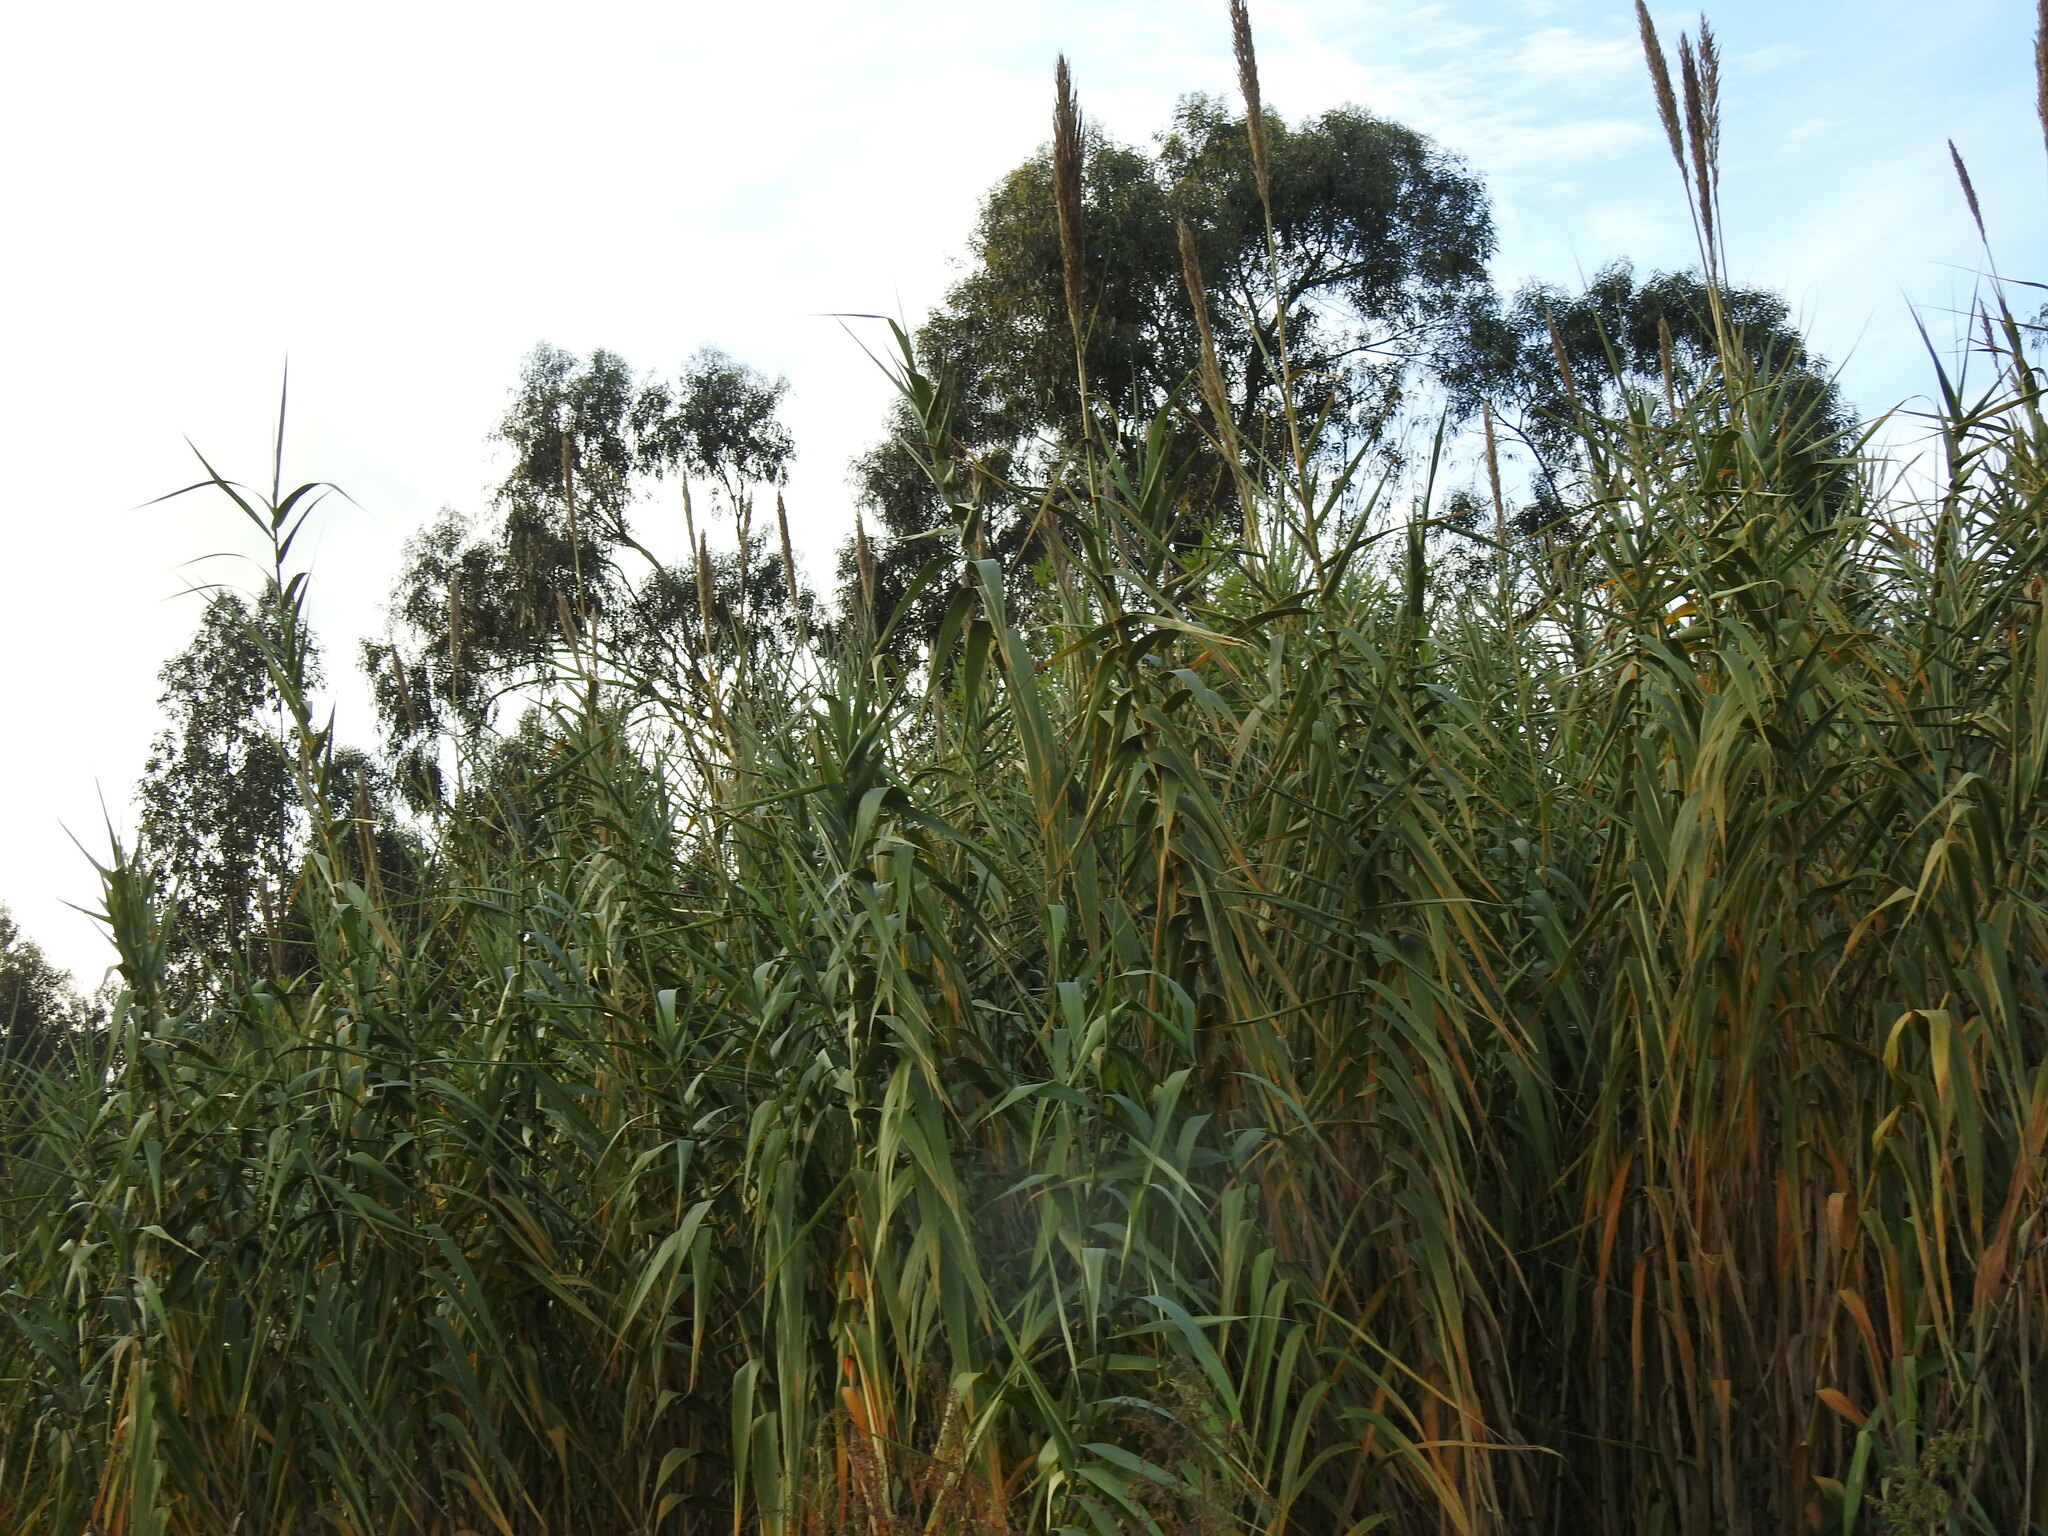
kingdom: Plantae
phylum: Tracheophyta
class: Liliopsida
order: Poales
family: Poaceae
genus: Arundo
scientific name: Arundo donax
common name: Giant reed
